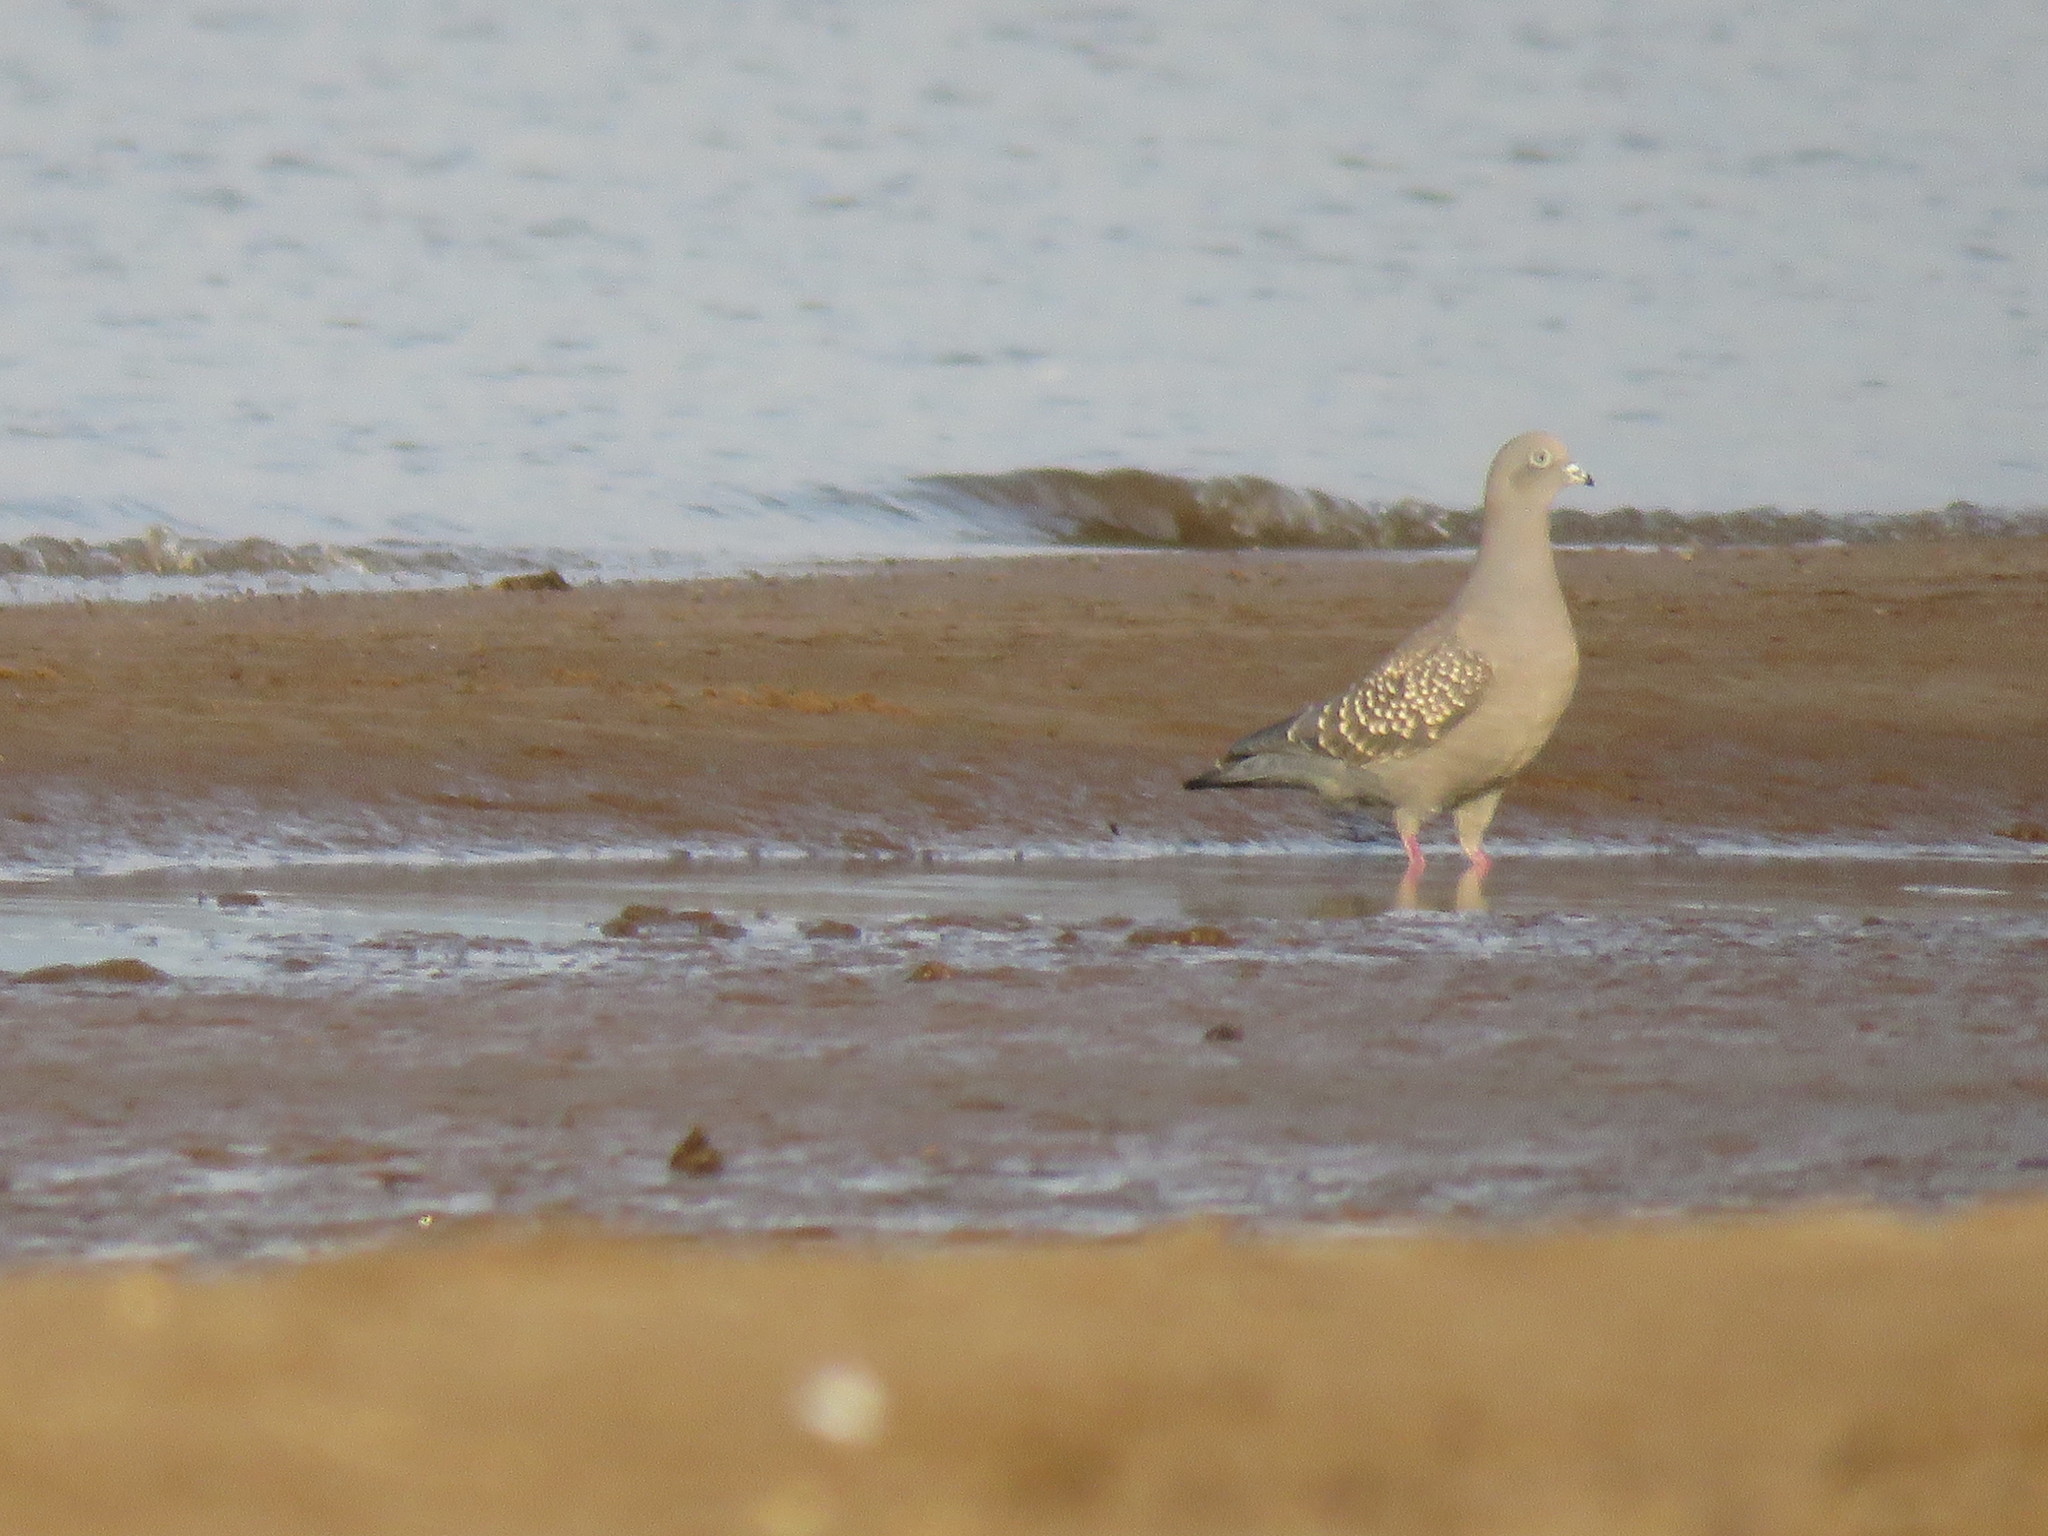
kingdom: Animalia
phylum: Chordata
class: Aves
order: Columbiformes
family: Columbidae
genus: Patagioenas
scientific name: Patagioenas maculosa
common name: Spot-winged pigeon
